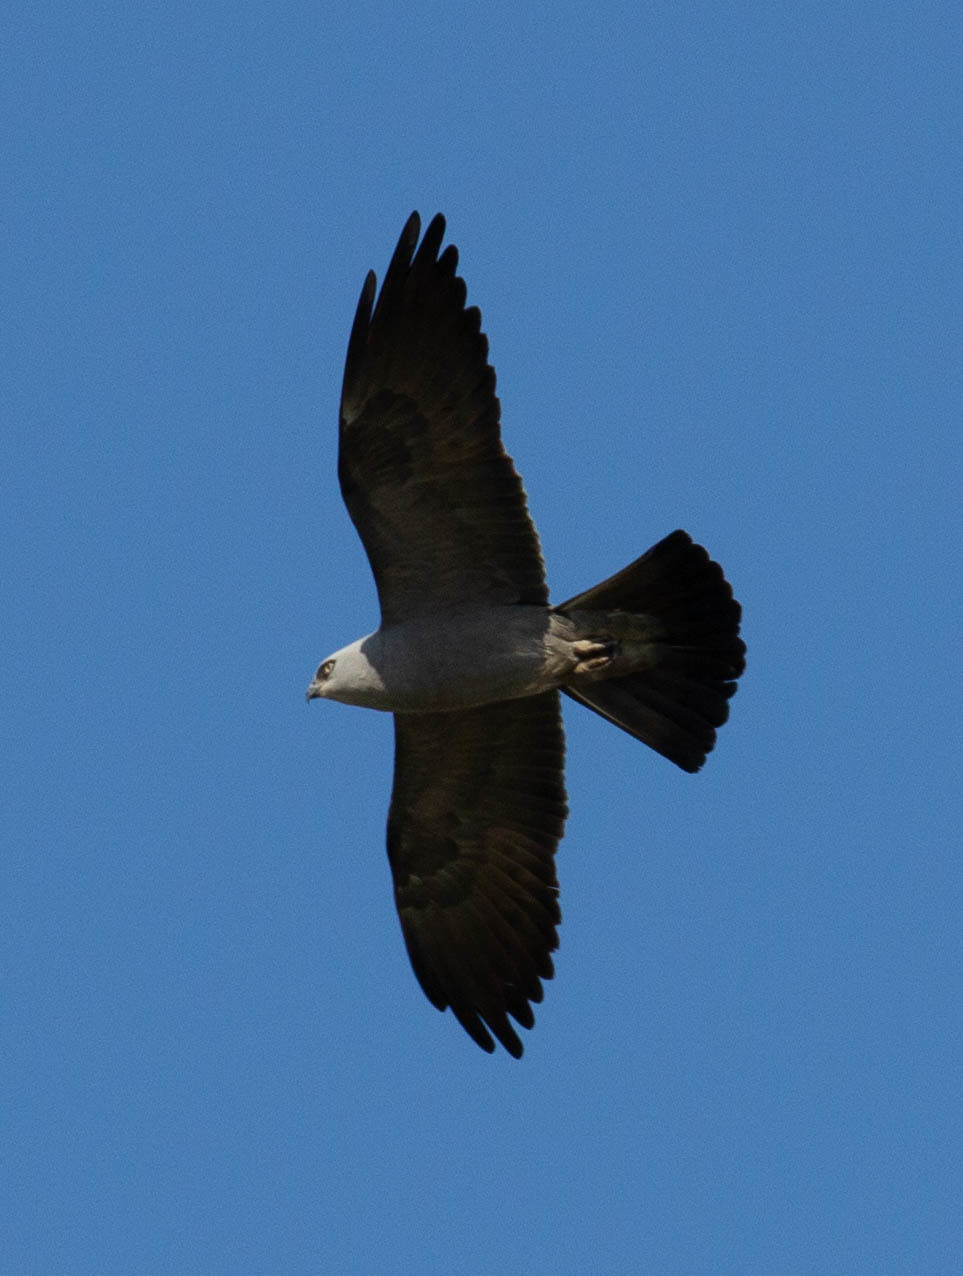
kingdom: Animalia
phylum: Chordata
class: Aves
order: Accipitriformes
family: Accipitridae
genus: Ictinia
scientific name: Ictinia mississippiensis
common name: Mississippi kite
